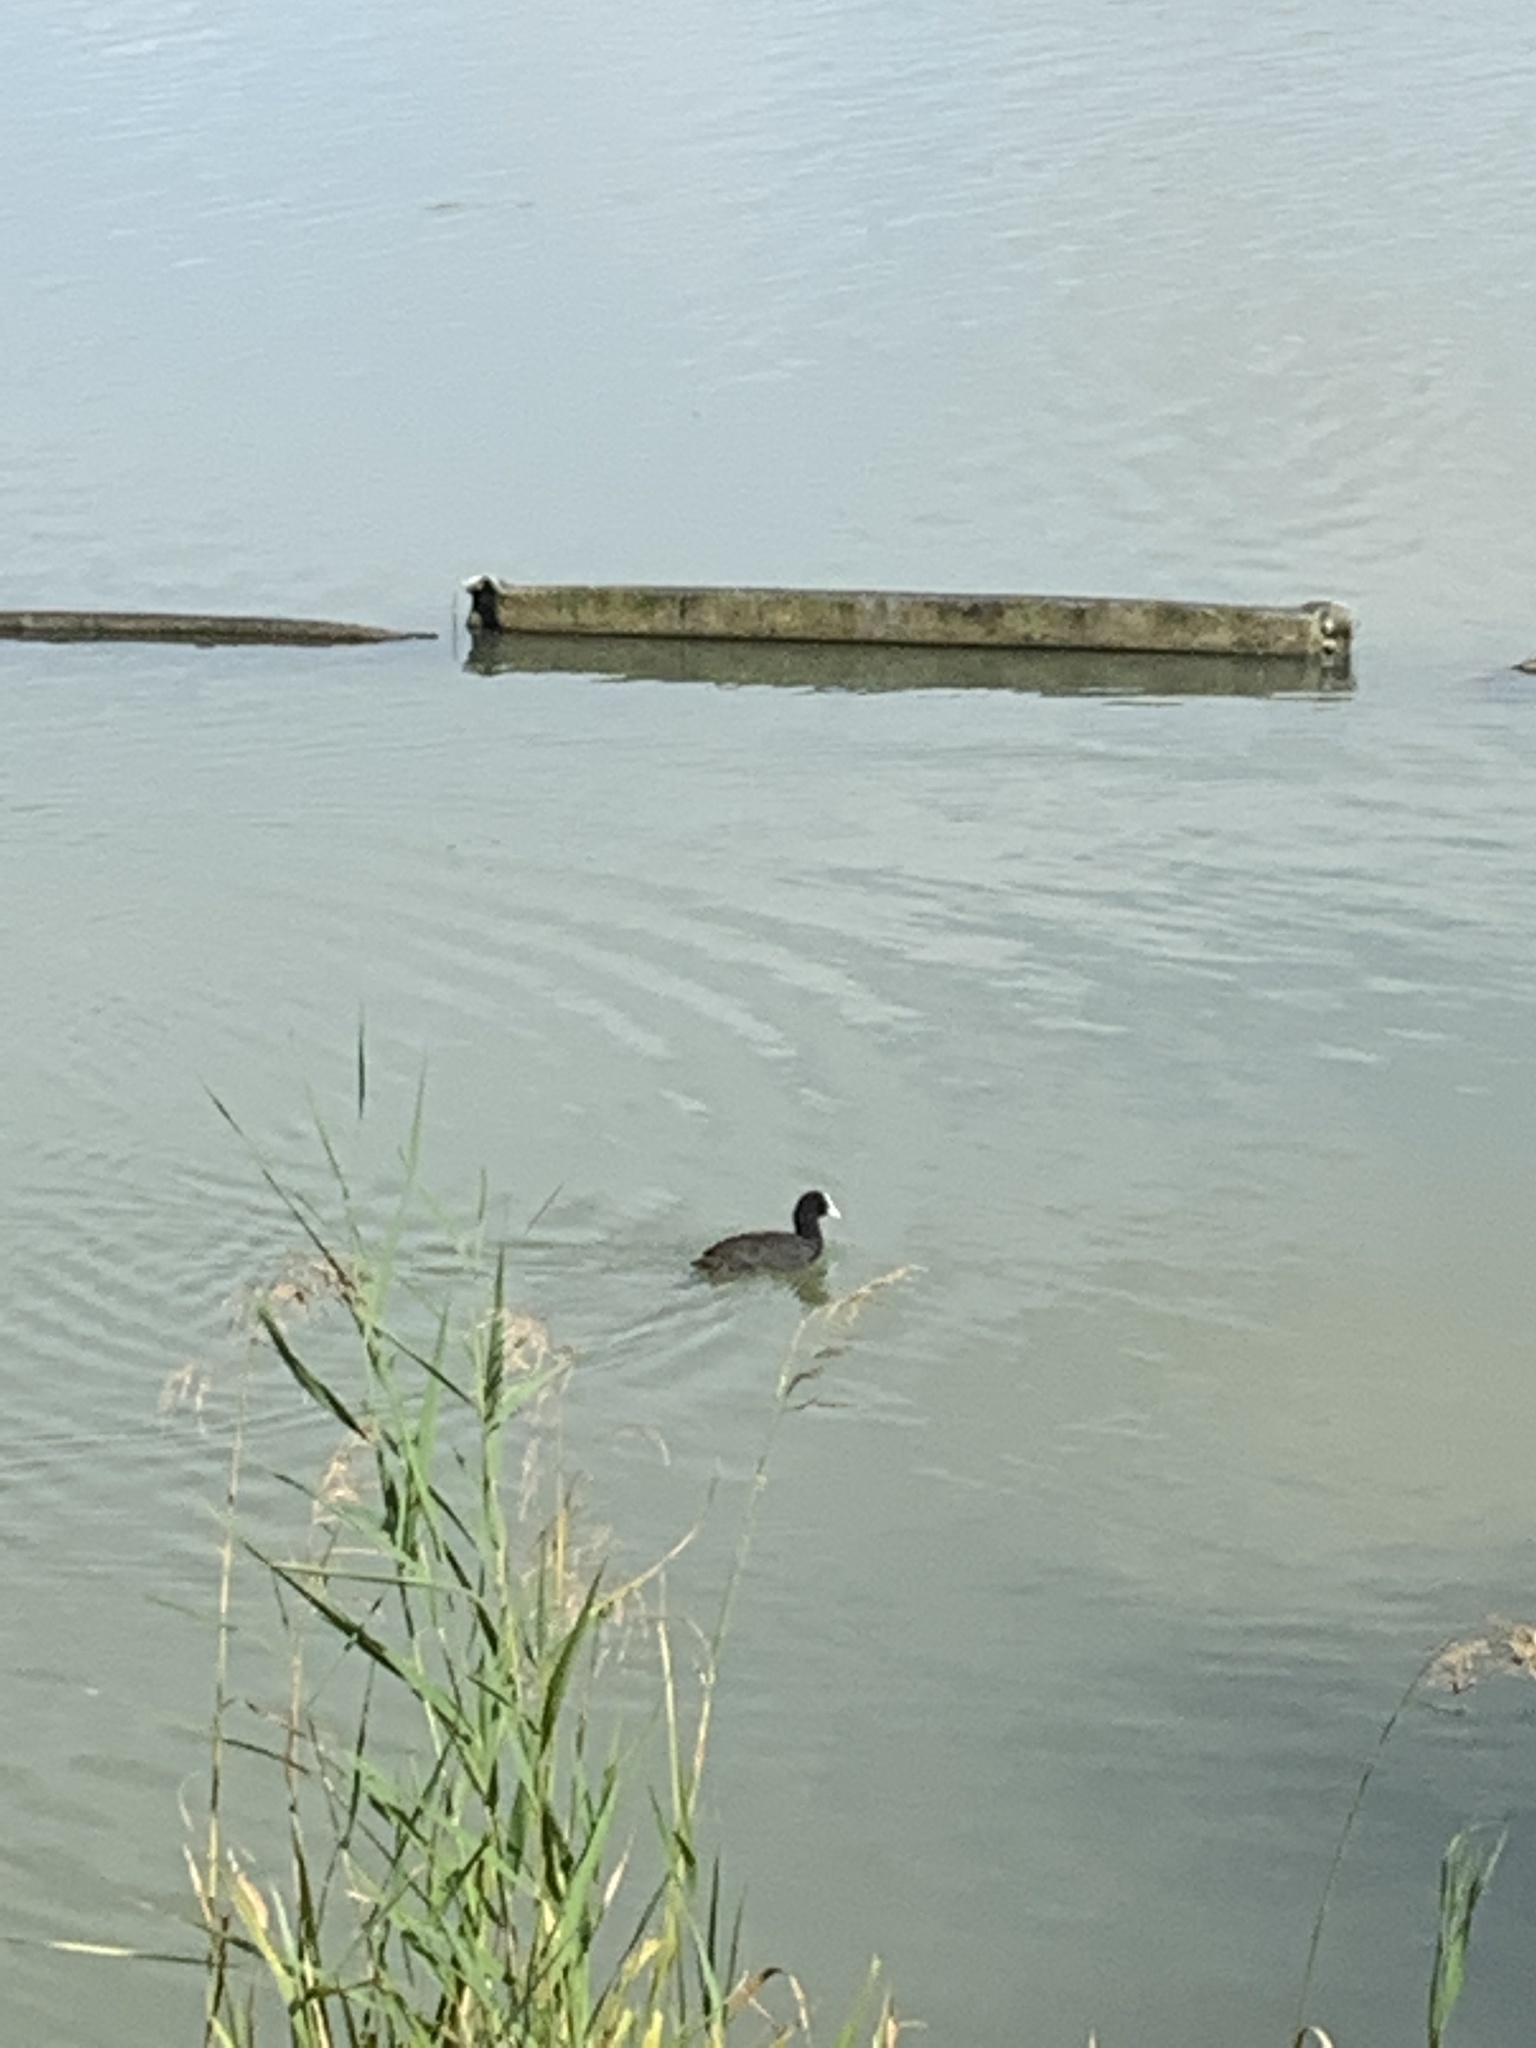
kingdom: Animalia
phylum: Chordata
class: Aves
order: Gruiformes
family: Rallidae
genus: Fulica
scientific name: Fulica atra
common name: Eurasian coot
